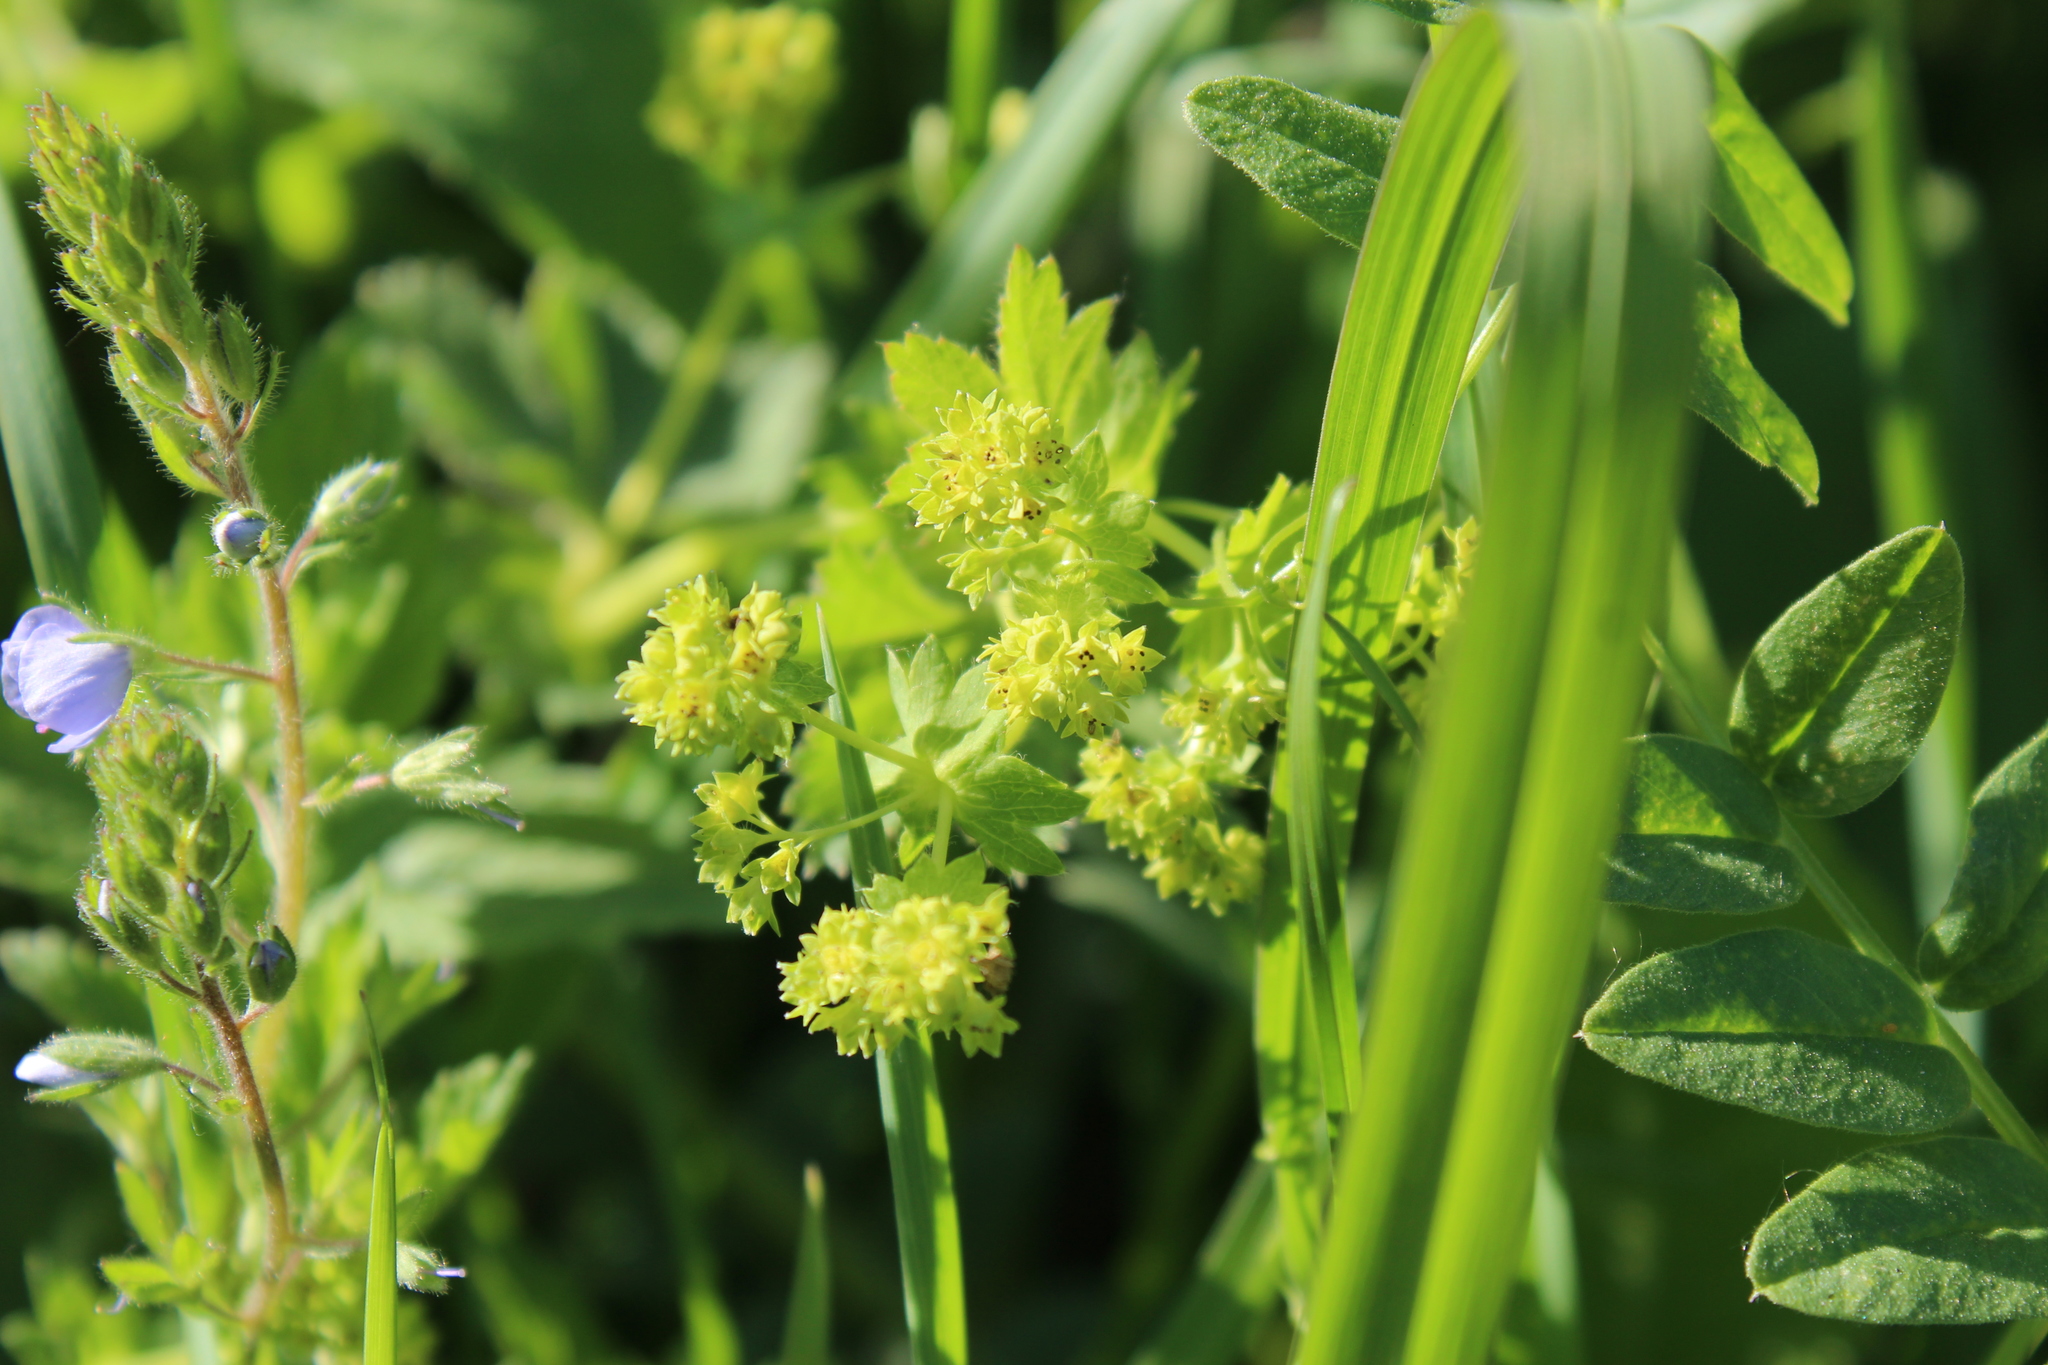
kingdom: Plantae
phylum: Tracheophyta
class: Magnoliopsida
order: Rosales
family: Rosaceae
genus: Alchemilla
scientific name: Alchemilla subcrenata
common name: Broadtooth lady's mantle
